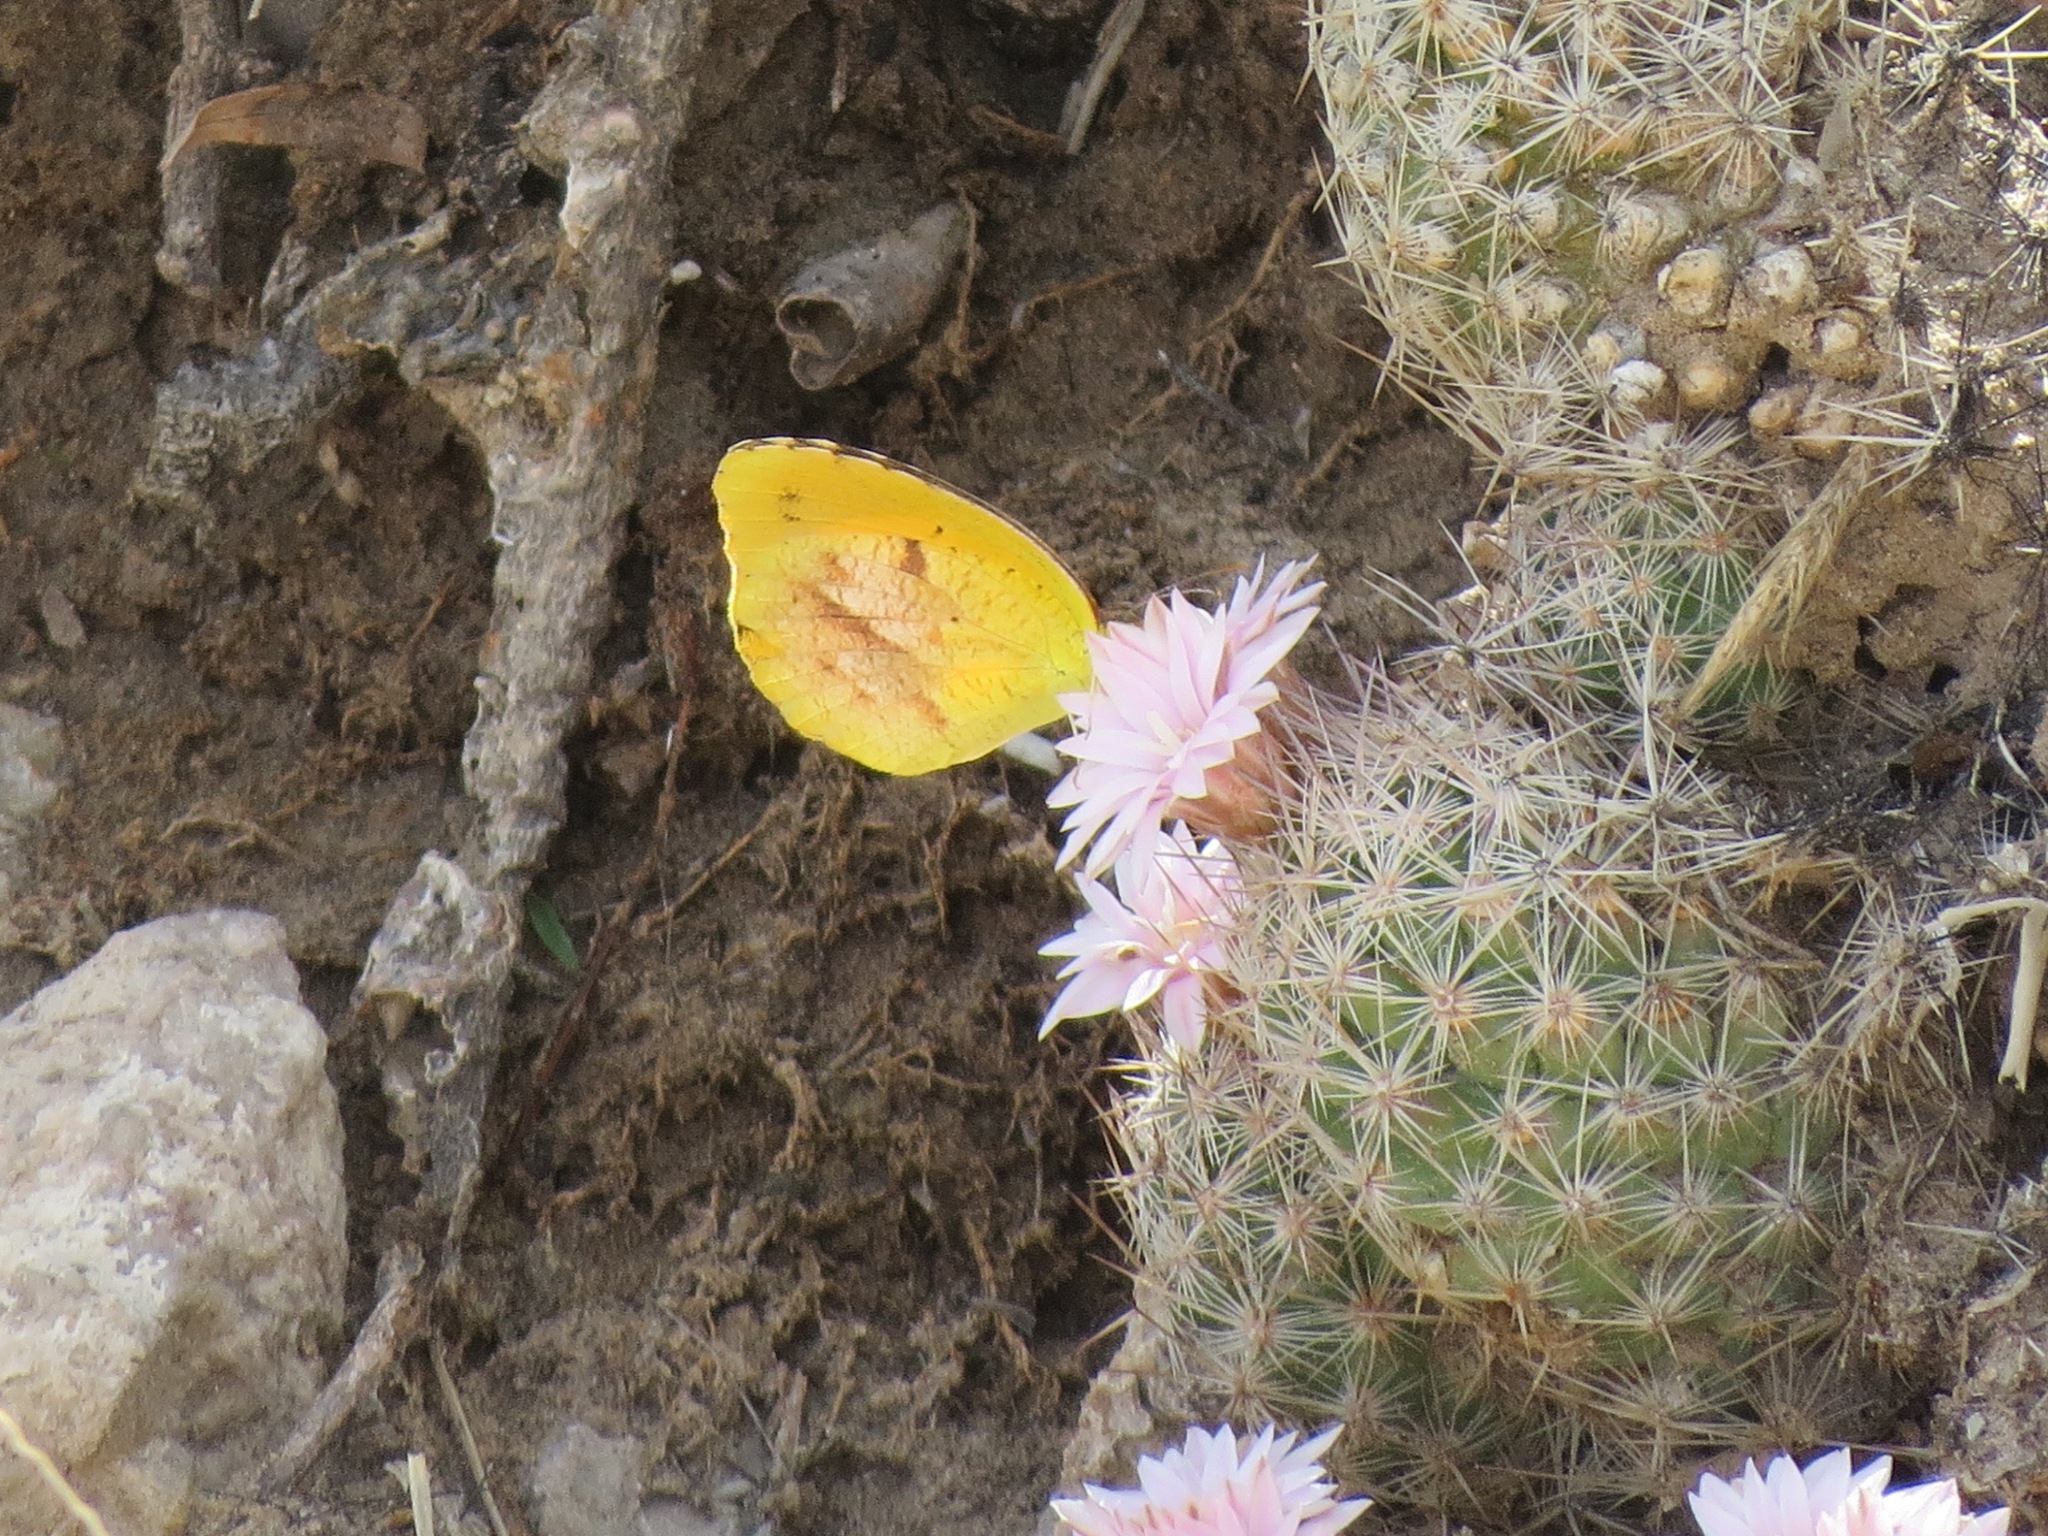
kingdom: Animalia
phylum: Arthropoda
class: Insecta
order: Lepidoptera
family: Pieridae
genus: Abaeis
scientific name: Abaeis nicippe
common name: Sleepy orange
